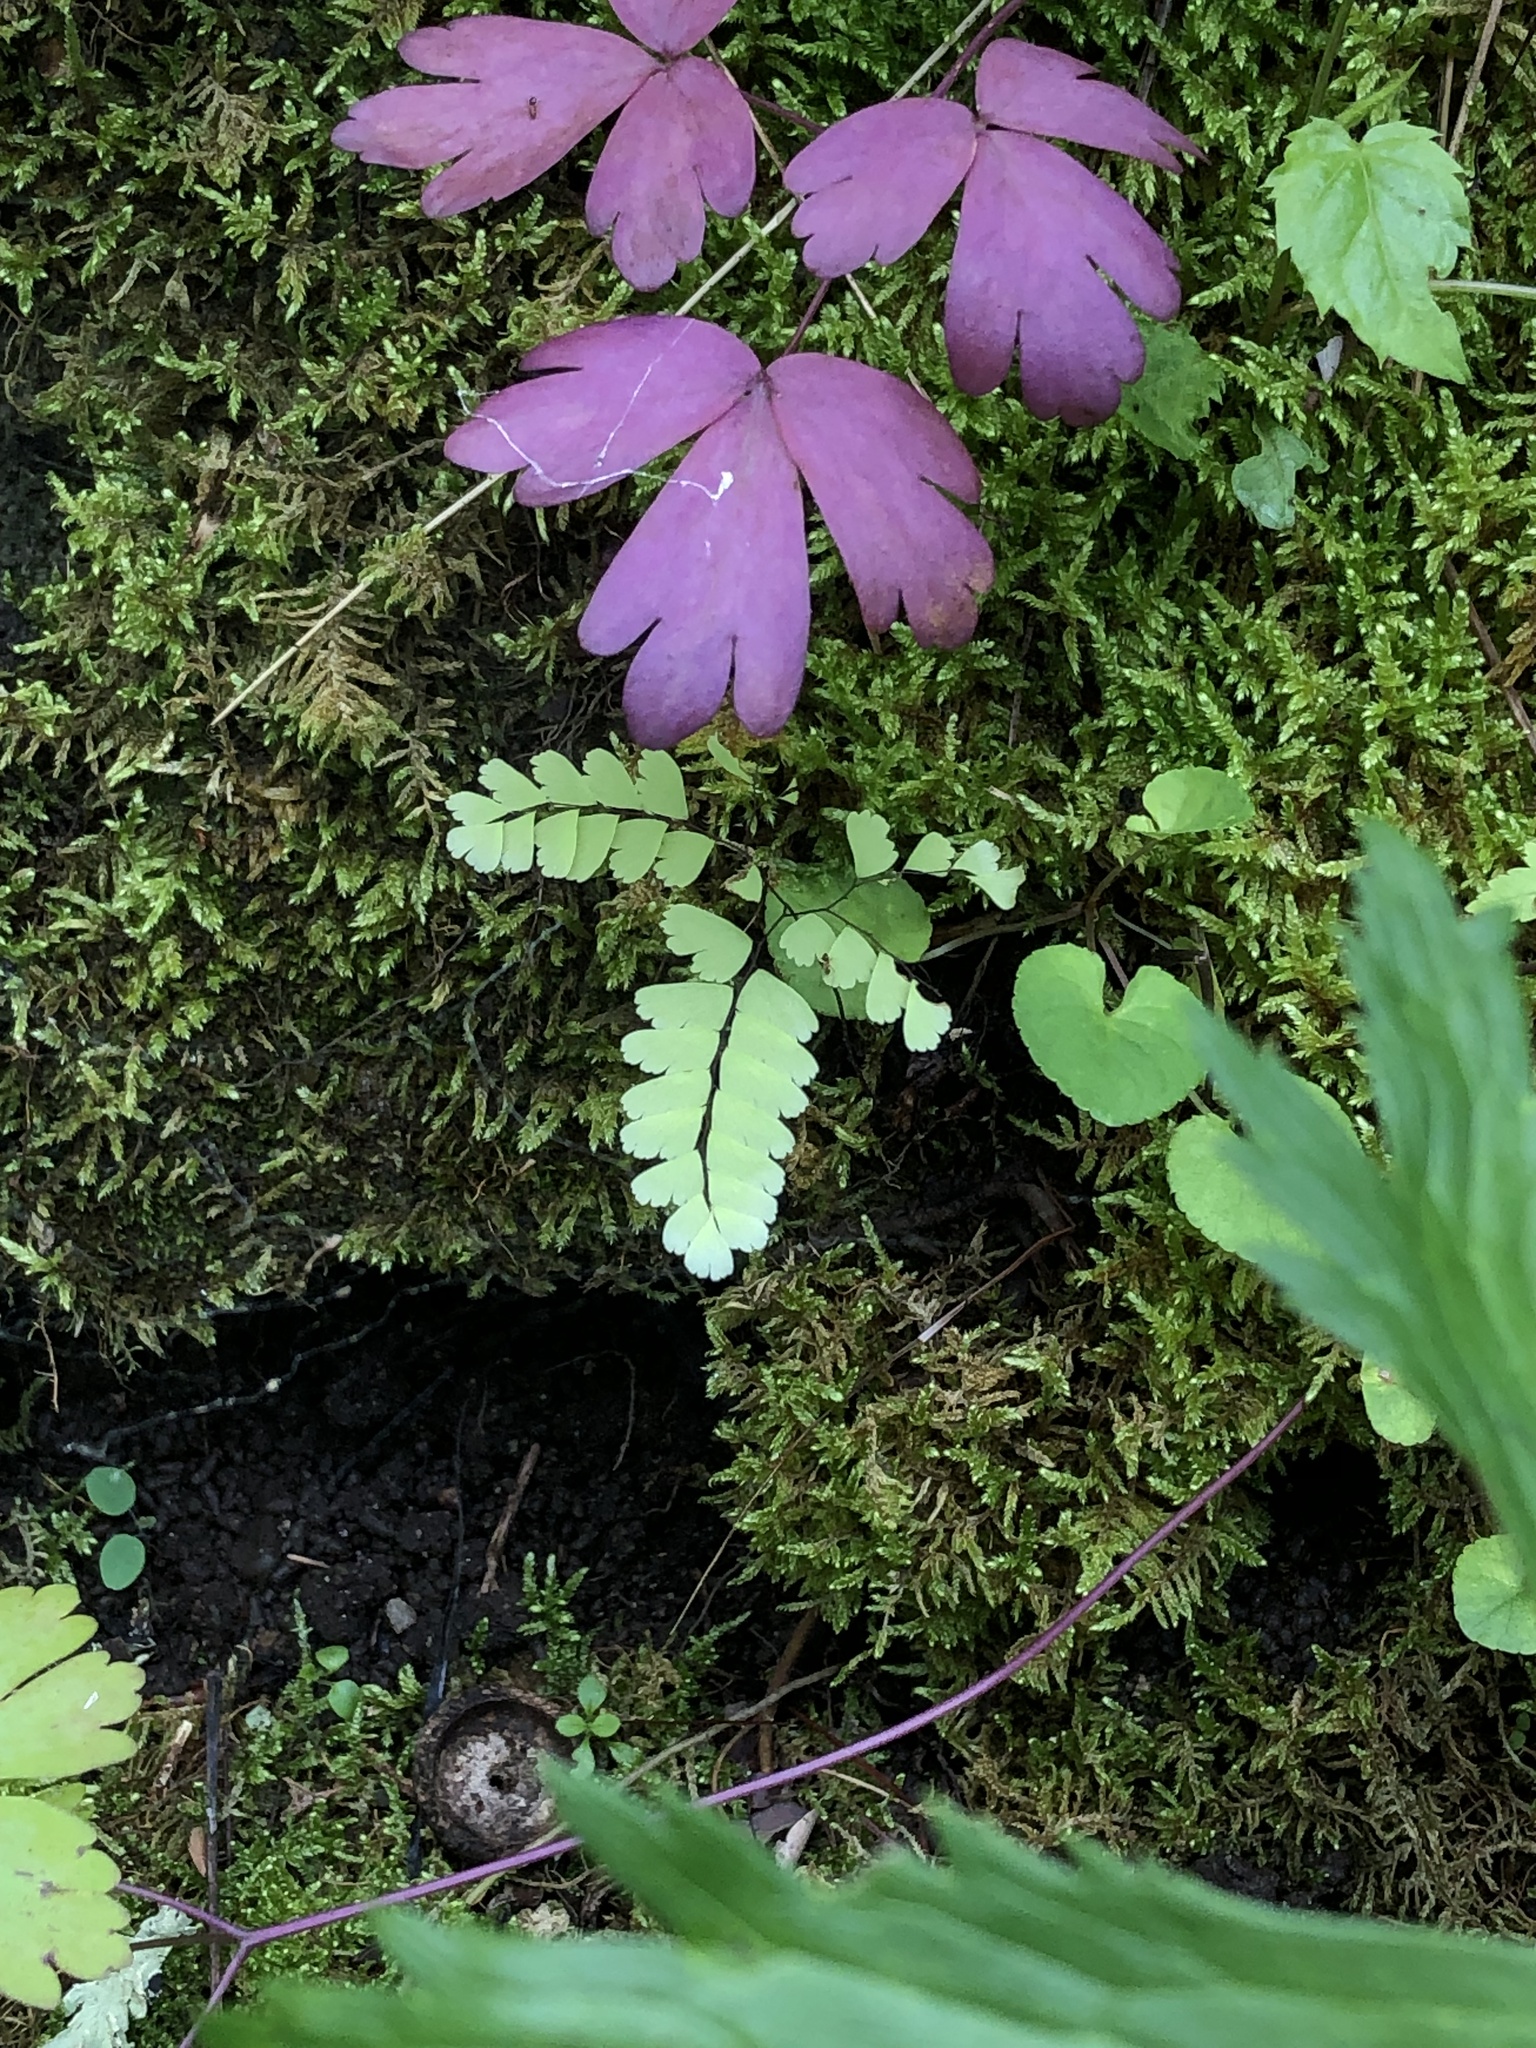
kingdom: Plantae
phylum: Tracheophyta
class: Polypodiopsida
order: Polypodiales
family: Pteridaceae
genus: Adiantum
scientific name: Adiantum pedatum
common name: Five-finger fern
